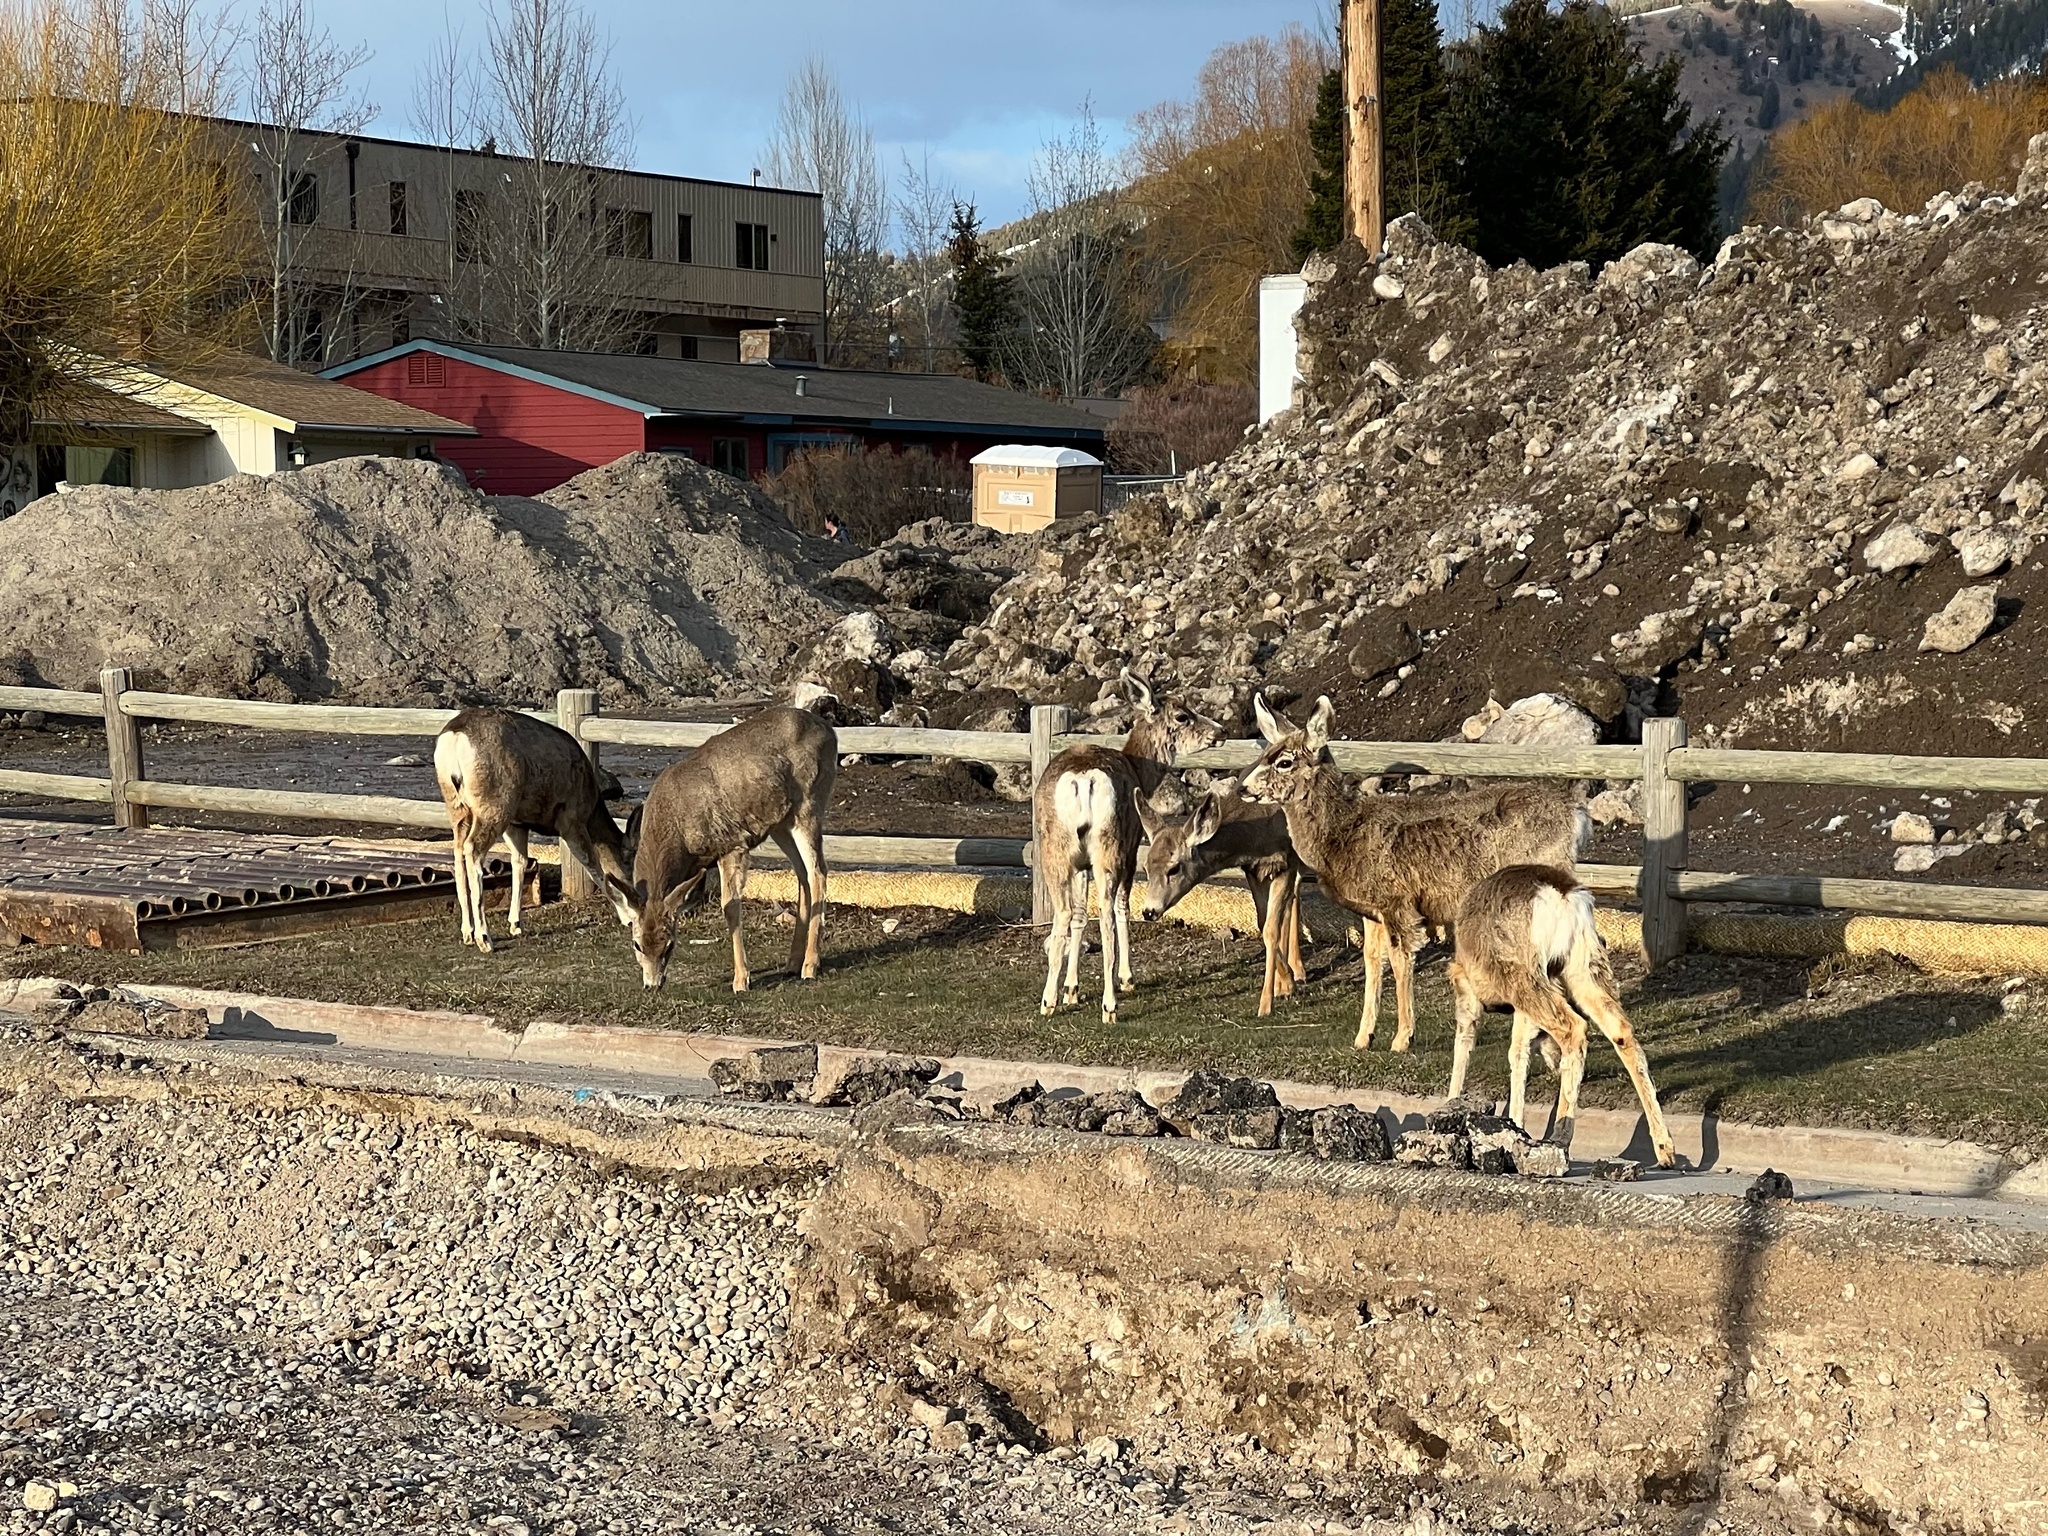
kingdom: Animalia
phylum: Chordata
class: Mammalia
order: Artiodactyla
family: Cervidae
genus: Odocoileus
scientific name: Odocoileus hemionus
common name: Mule deer
